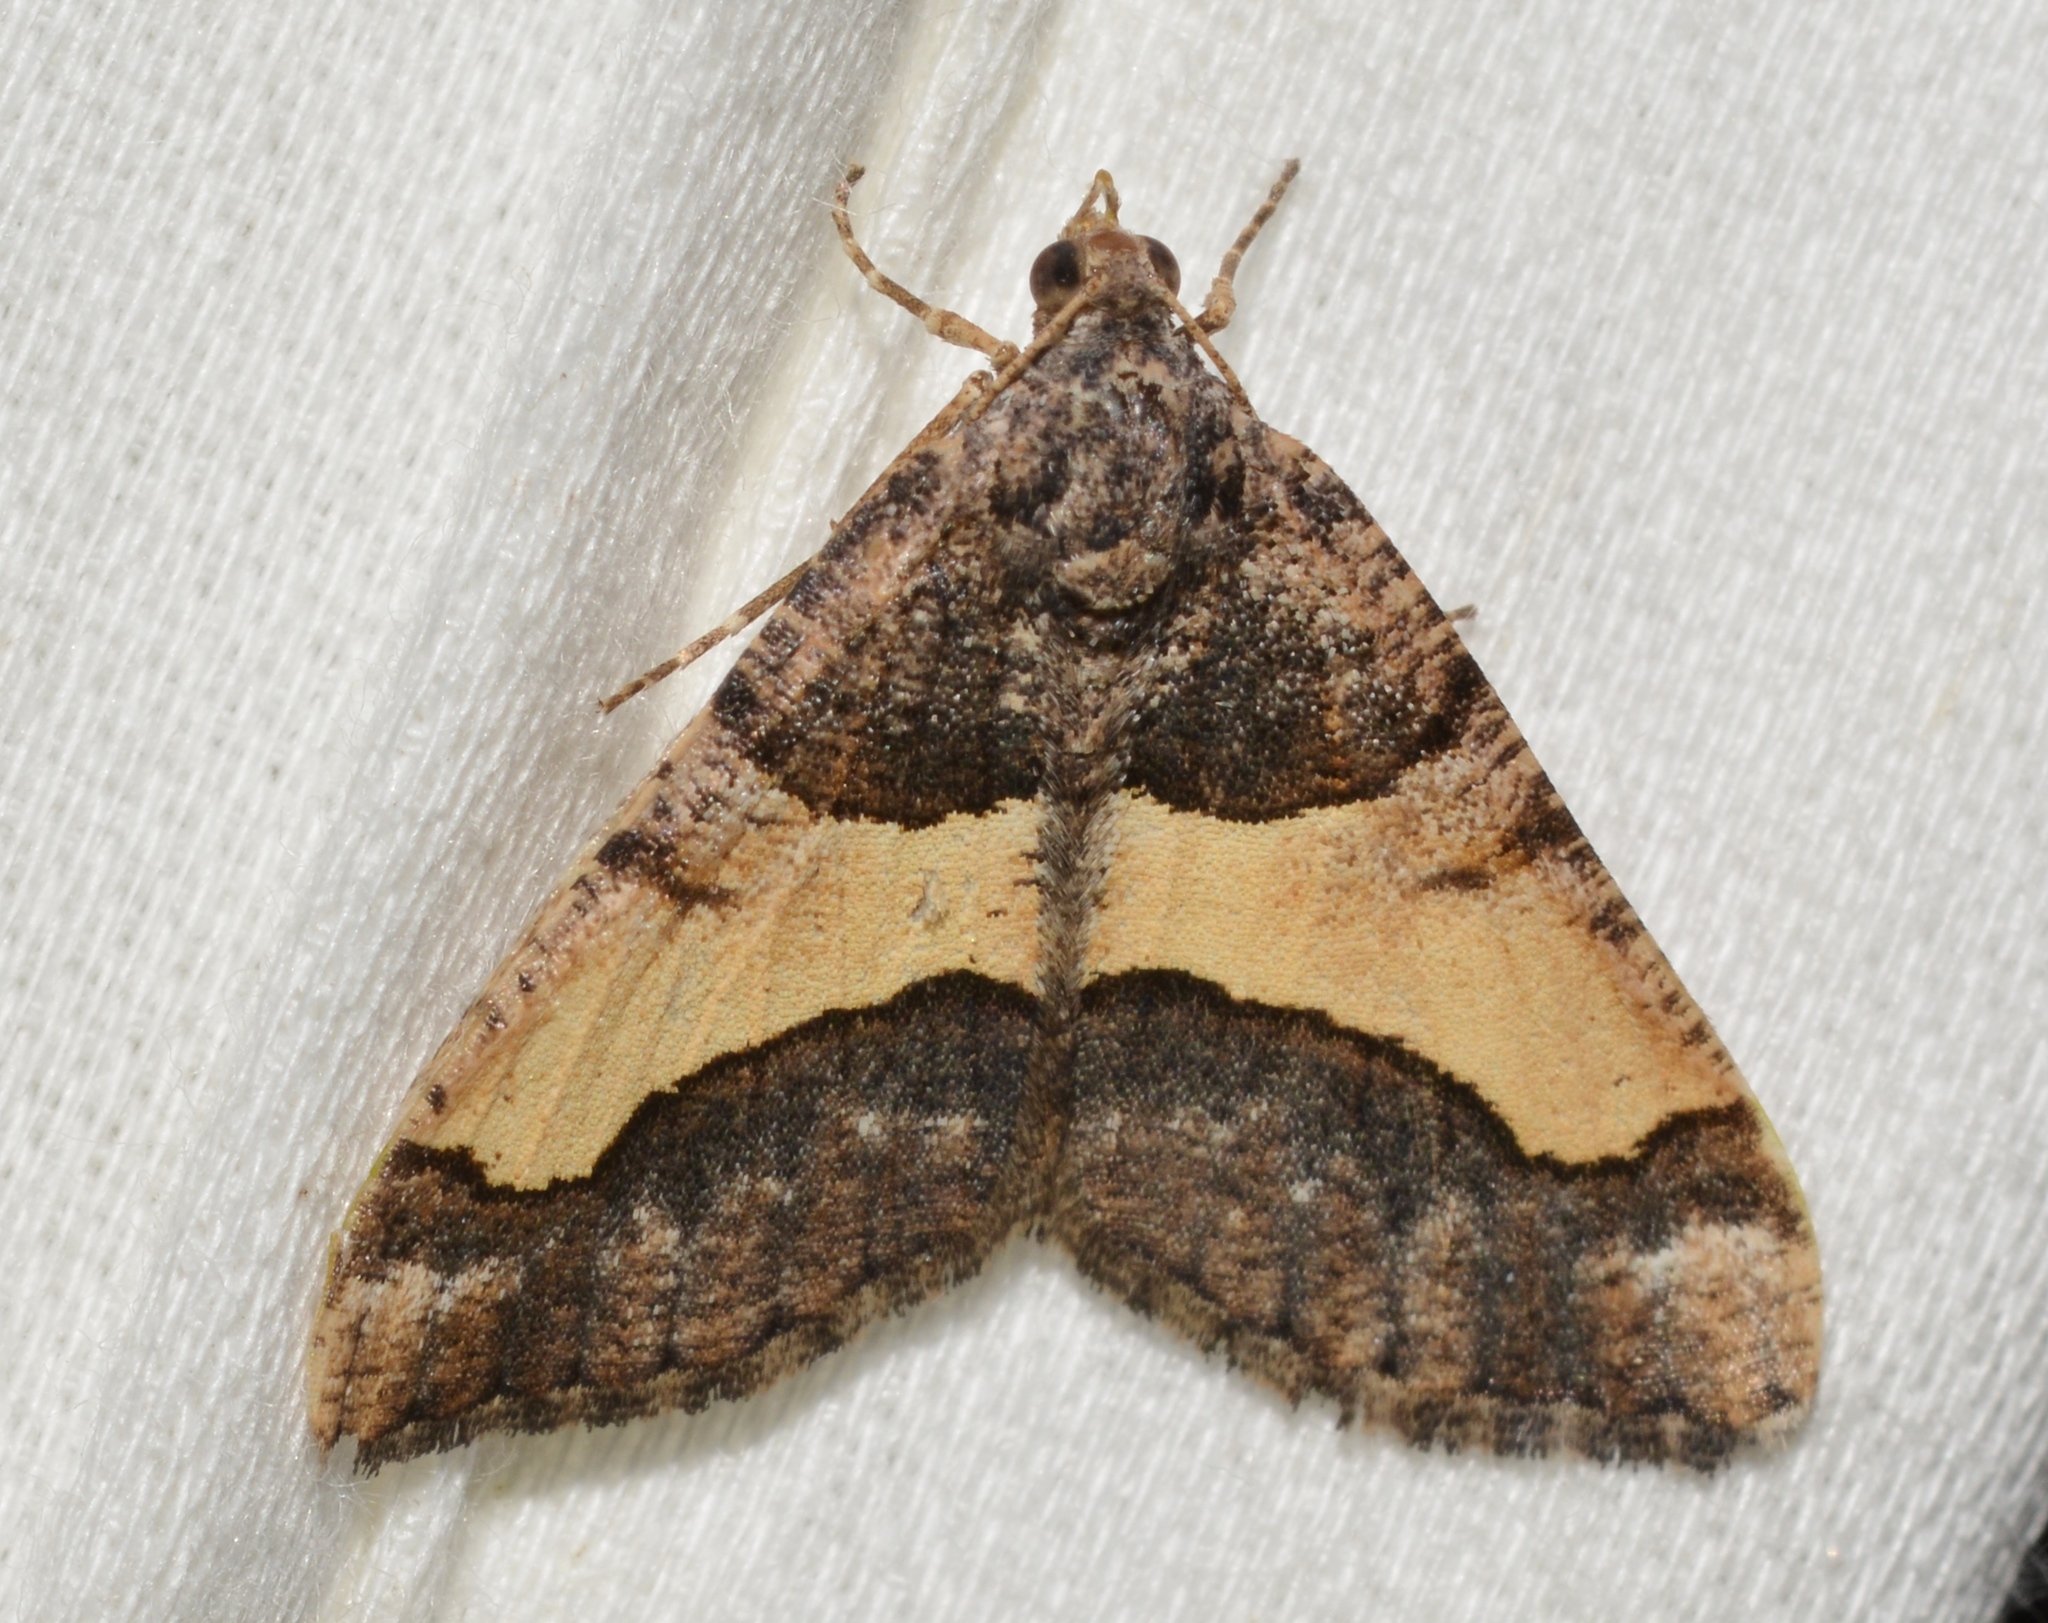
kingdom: Animalia
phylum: Arthropoda
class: Insecta
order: Lepidoptera
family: Geometridae
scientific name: Geometridae
